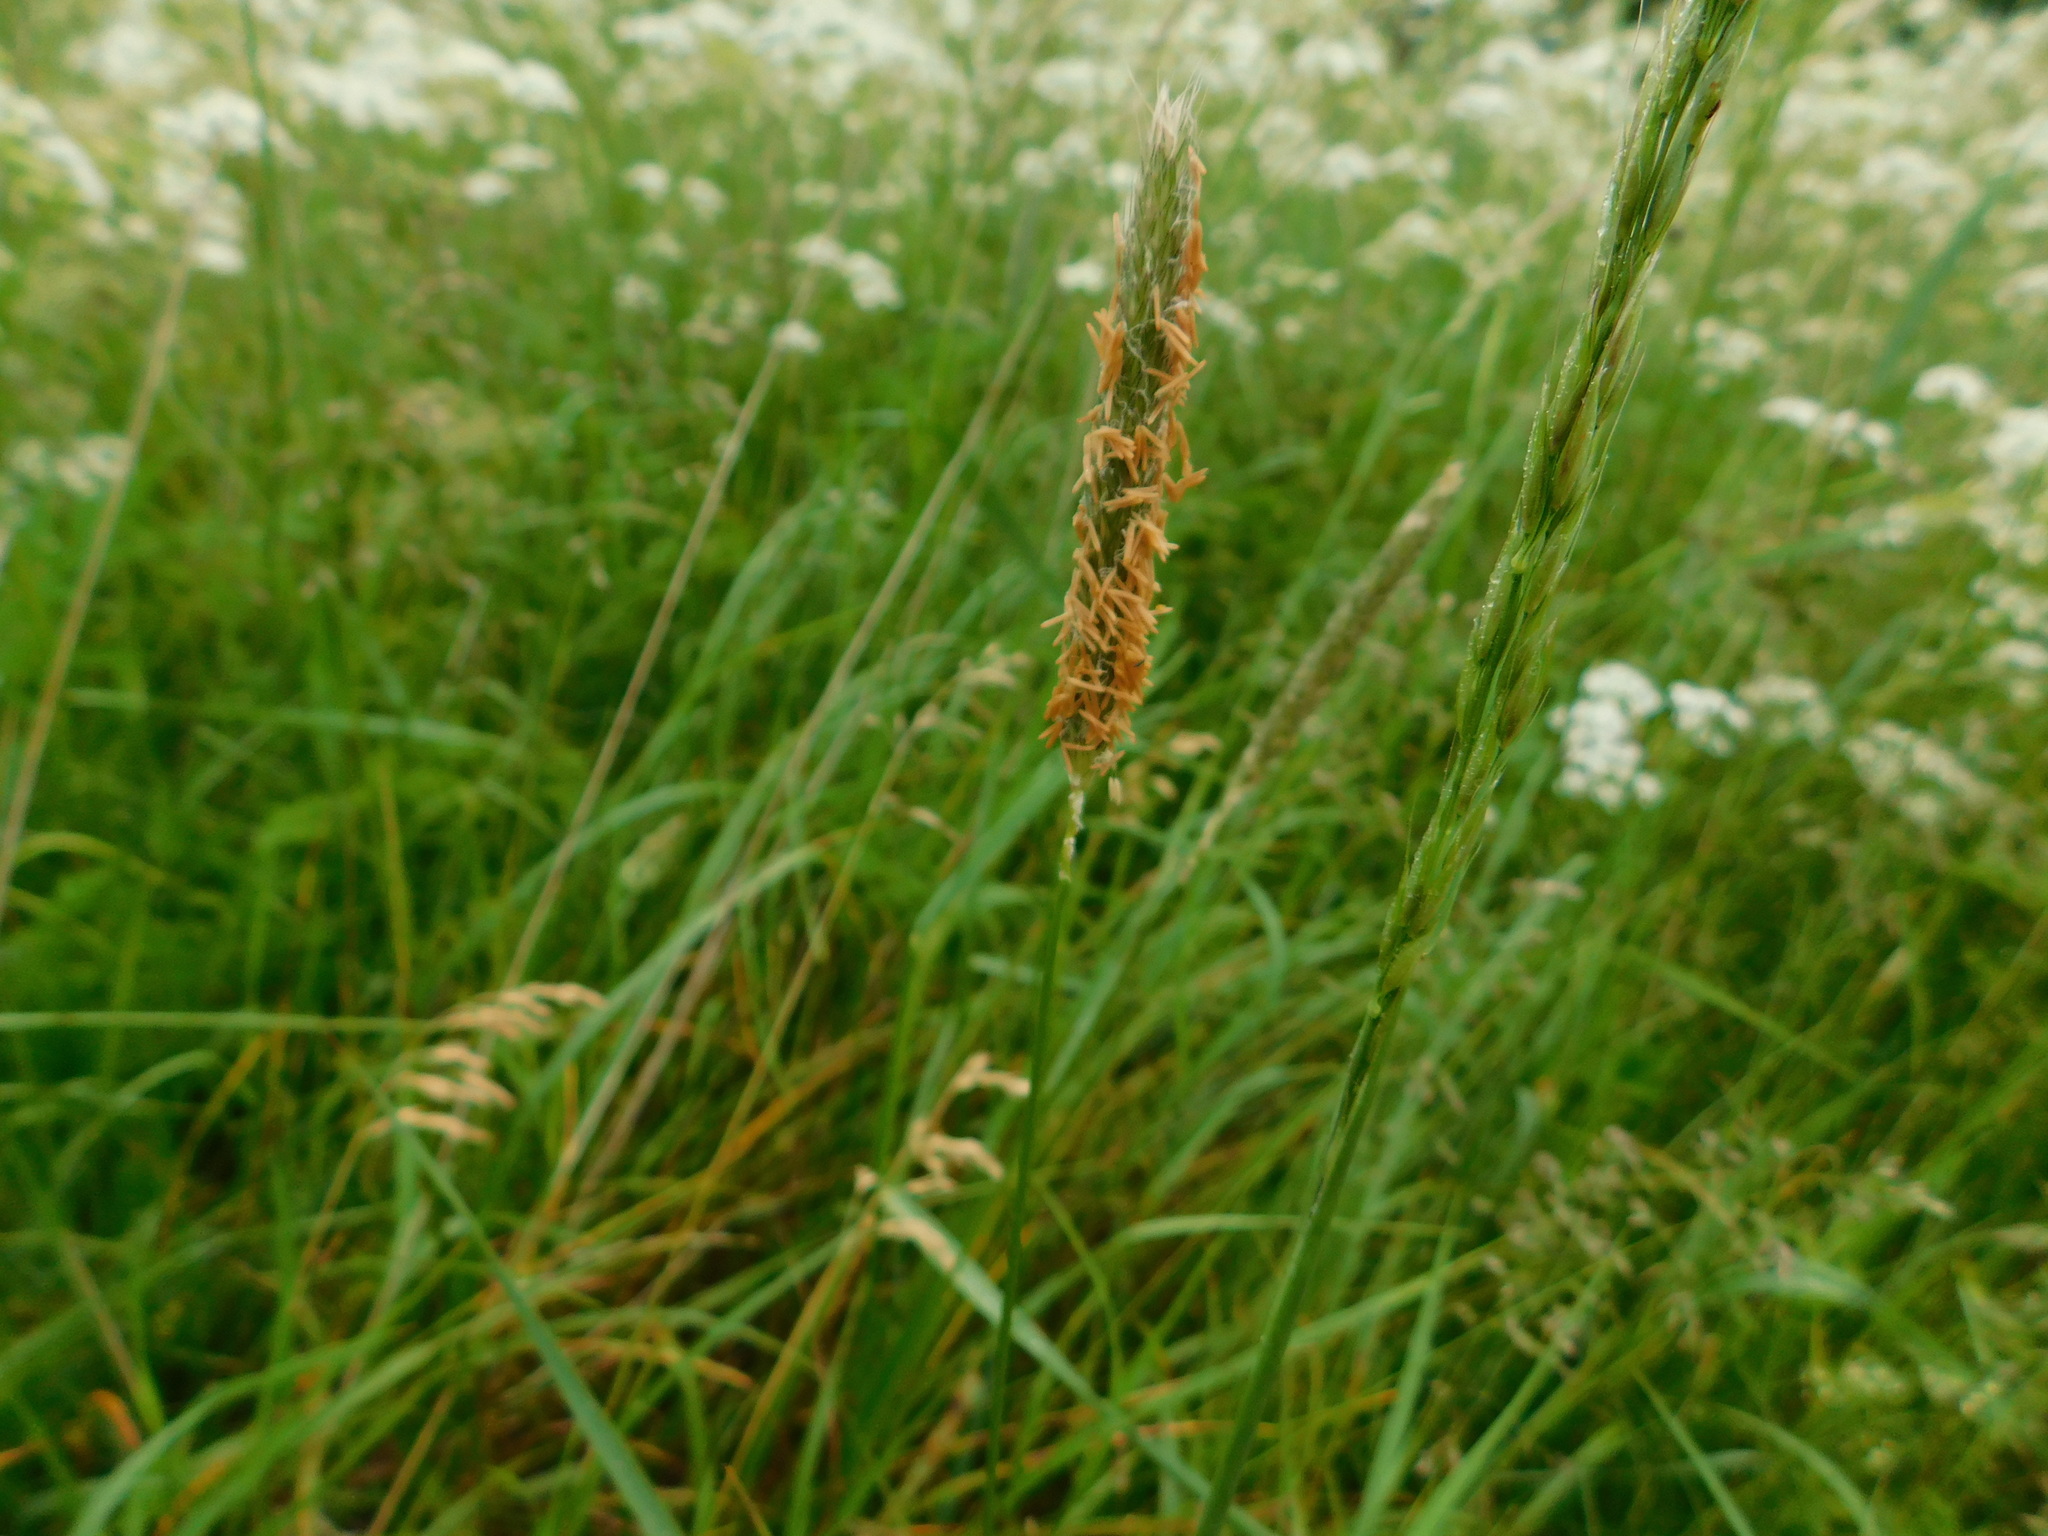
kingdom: Plantae
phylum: Tracheophyta
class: Liliopsida
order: Poales
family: Poaceae
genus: Alopecurus
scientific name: Alopecurus pratensis
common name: Meadow foxtail
